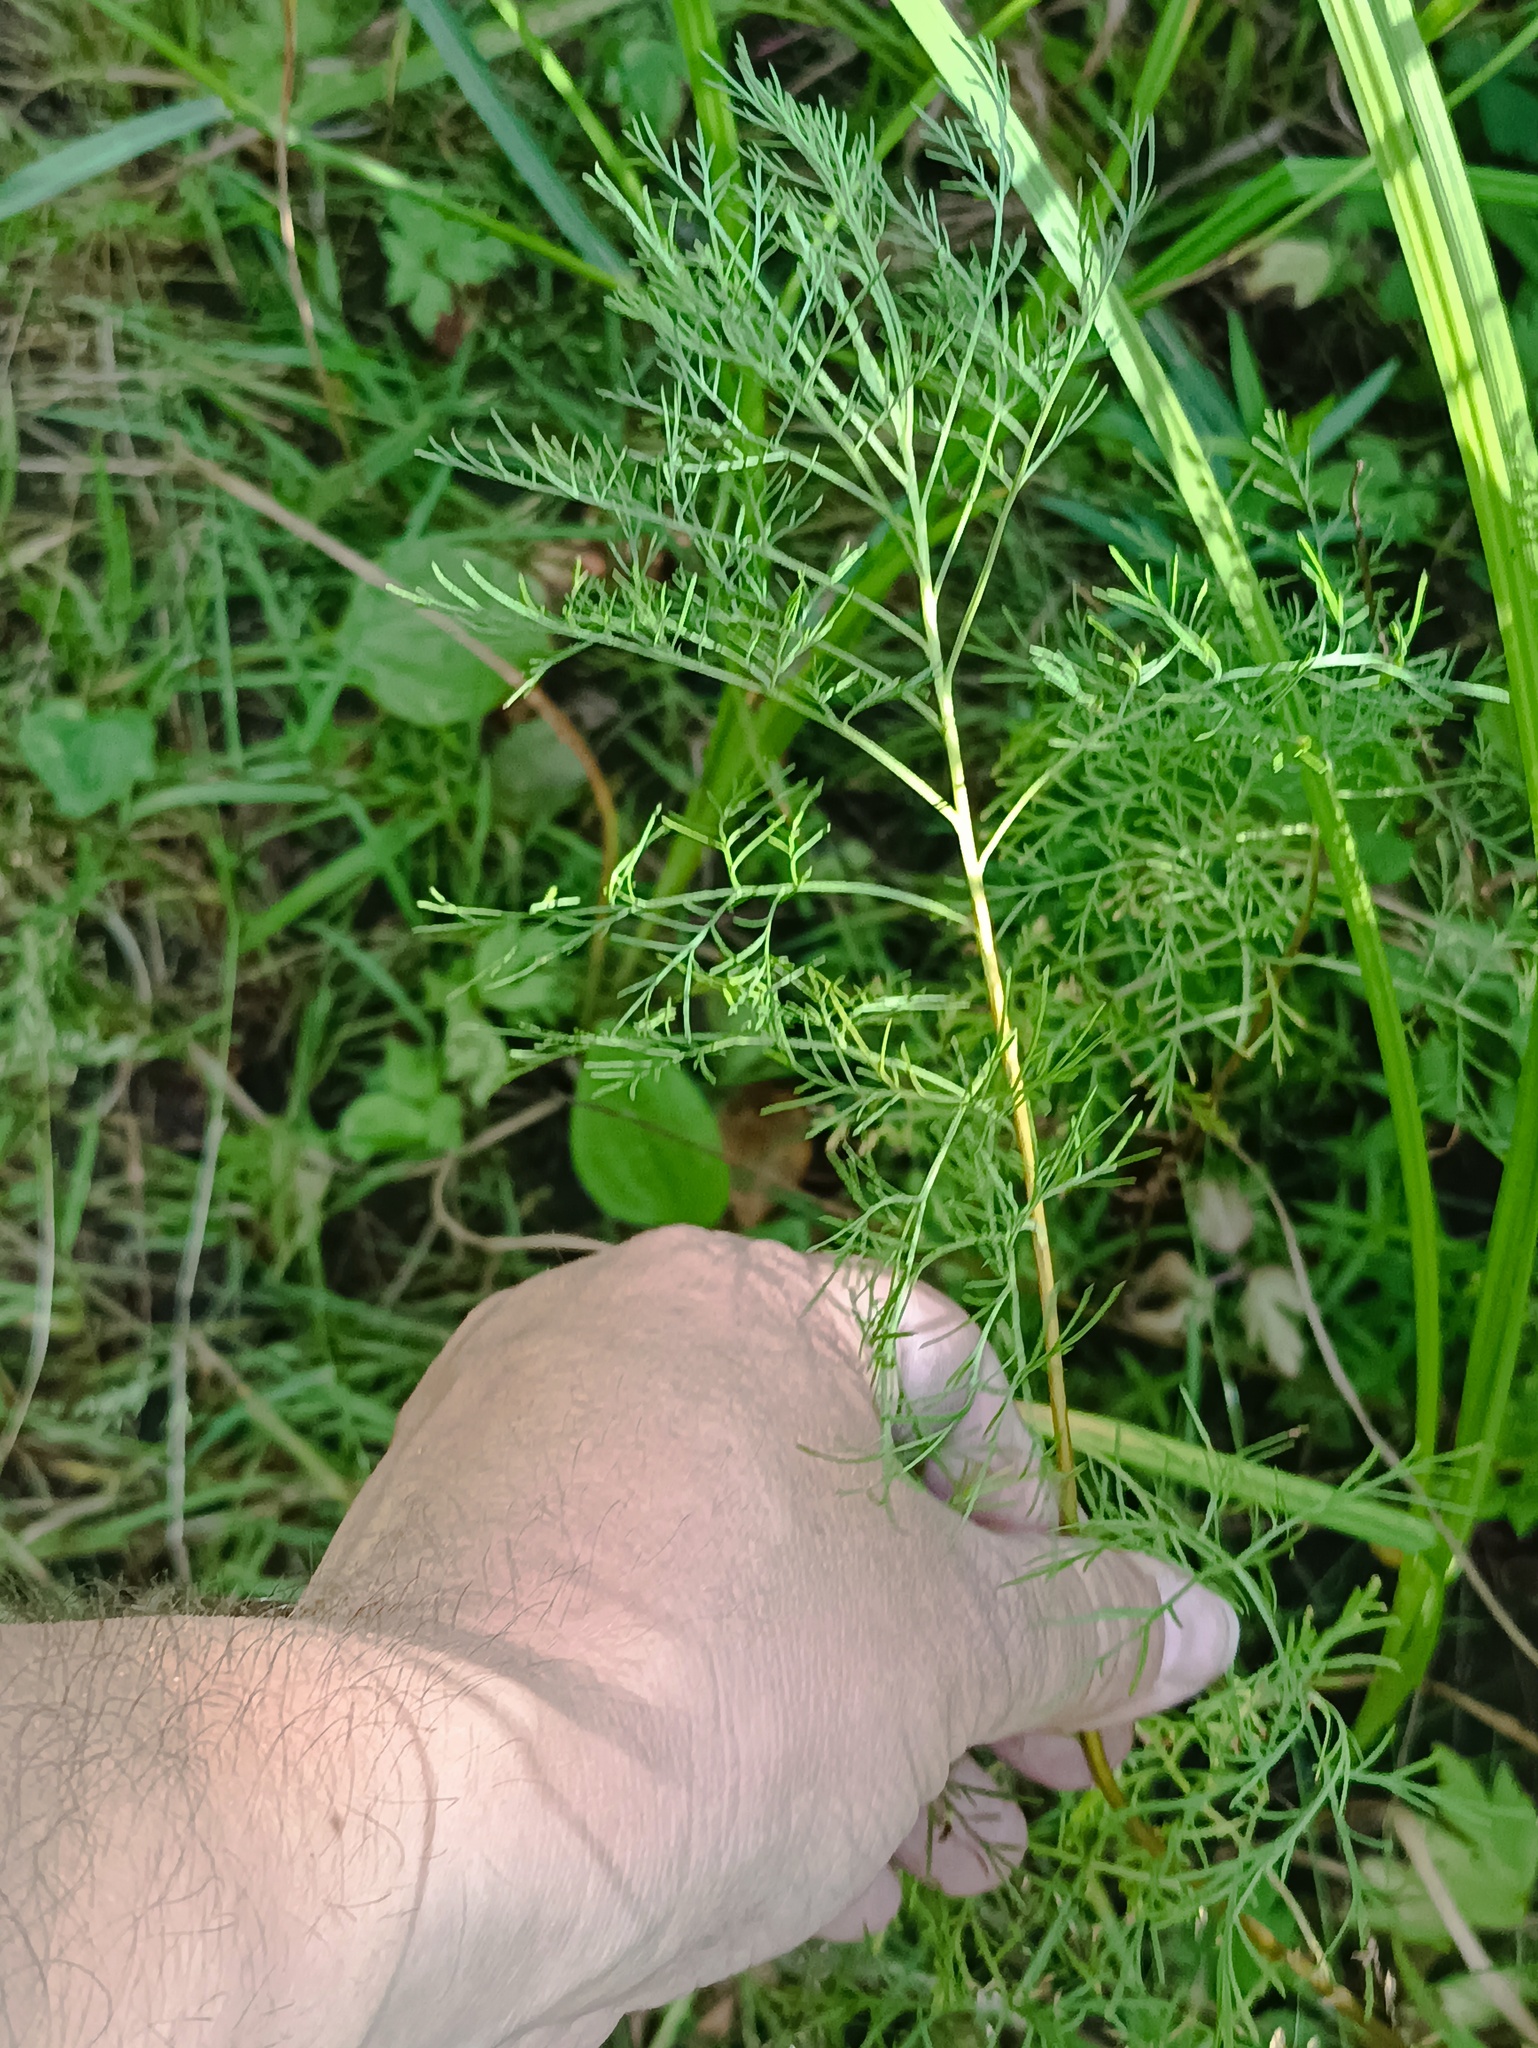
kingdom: Plantae
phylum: Tracheophyta
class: Magnoliopsida
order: Asterales
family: Asteraceae
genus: Artemisia
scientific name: Artemisia abrotanum
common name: Southernwood
